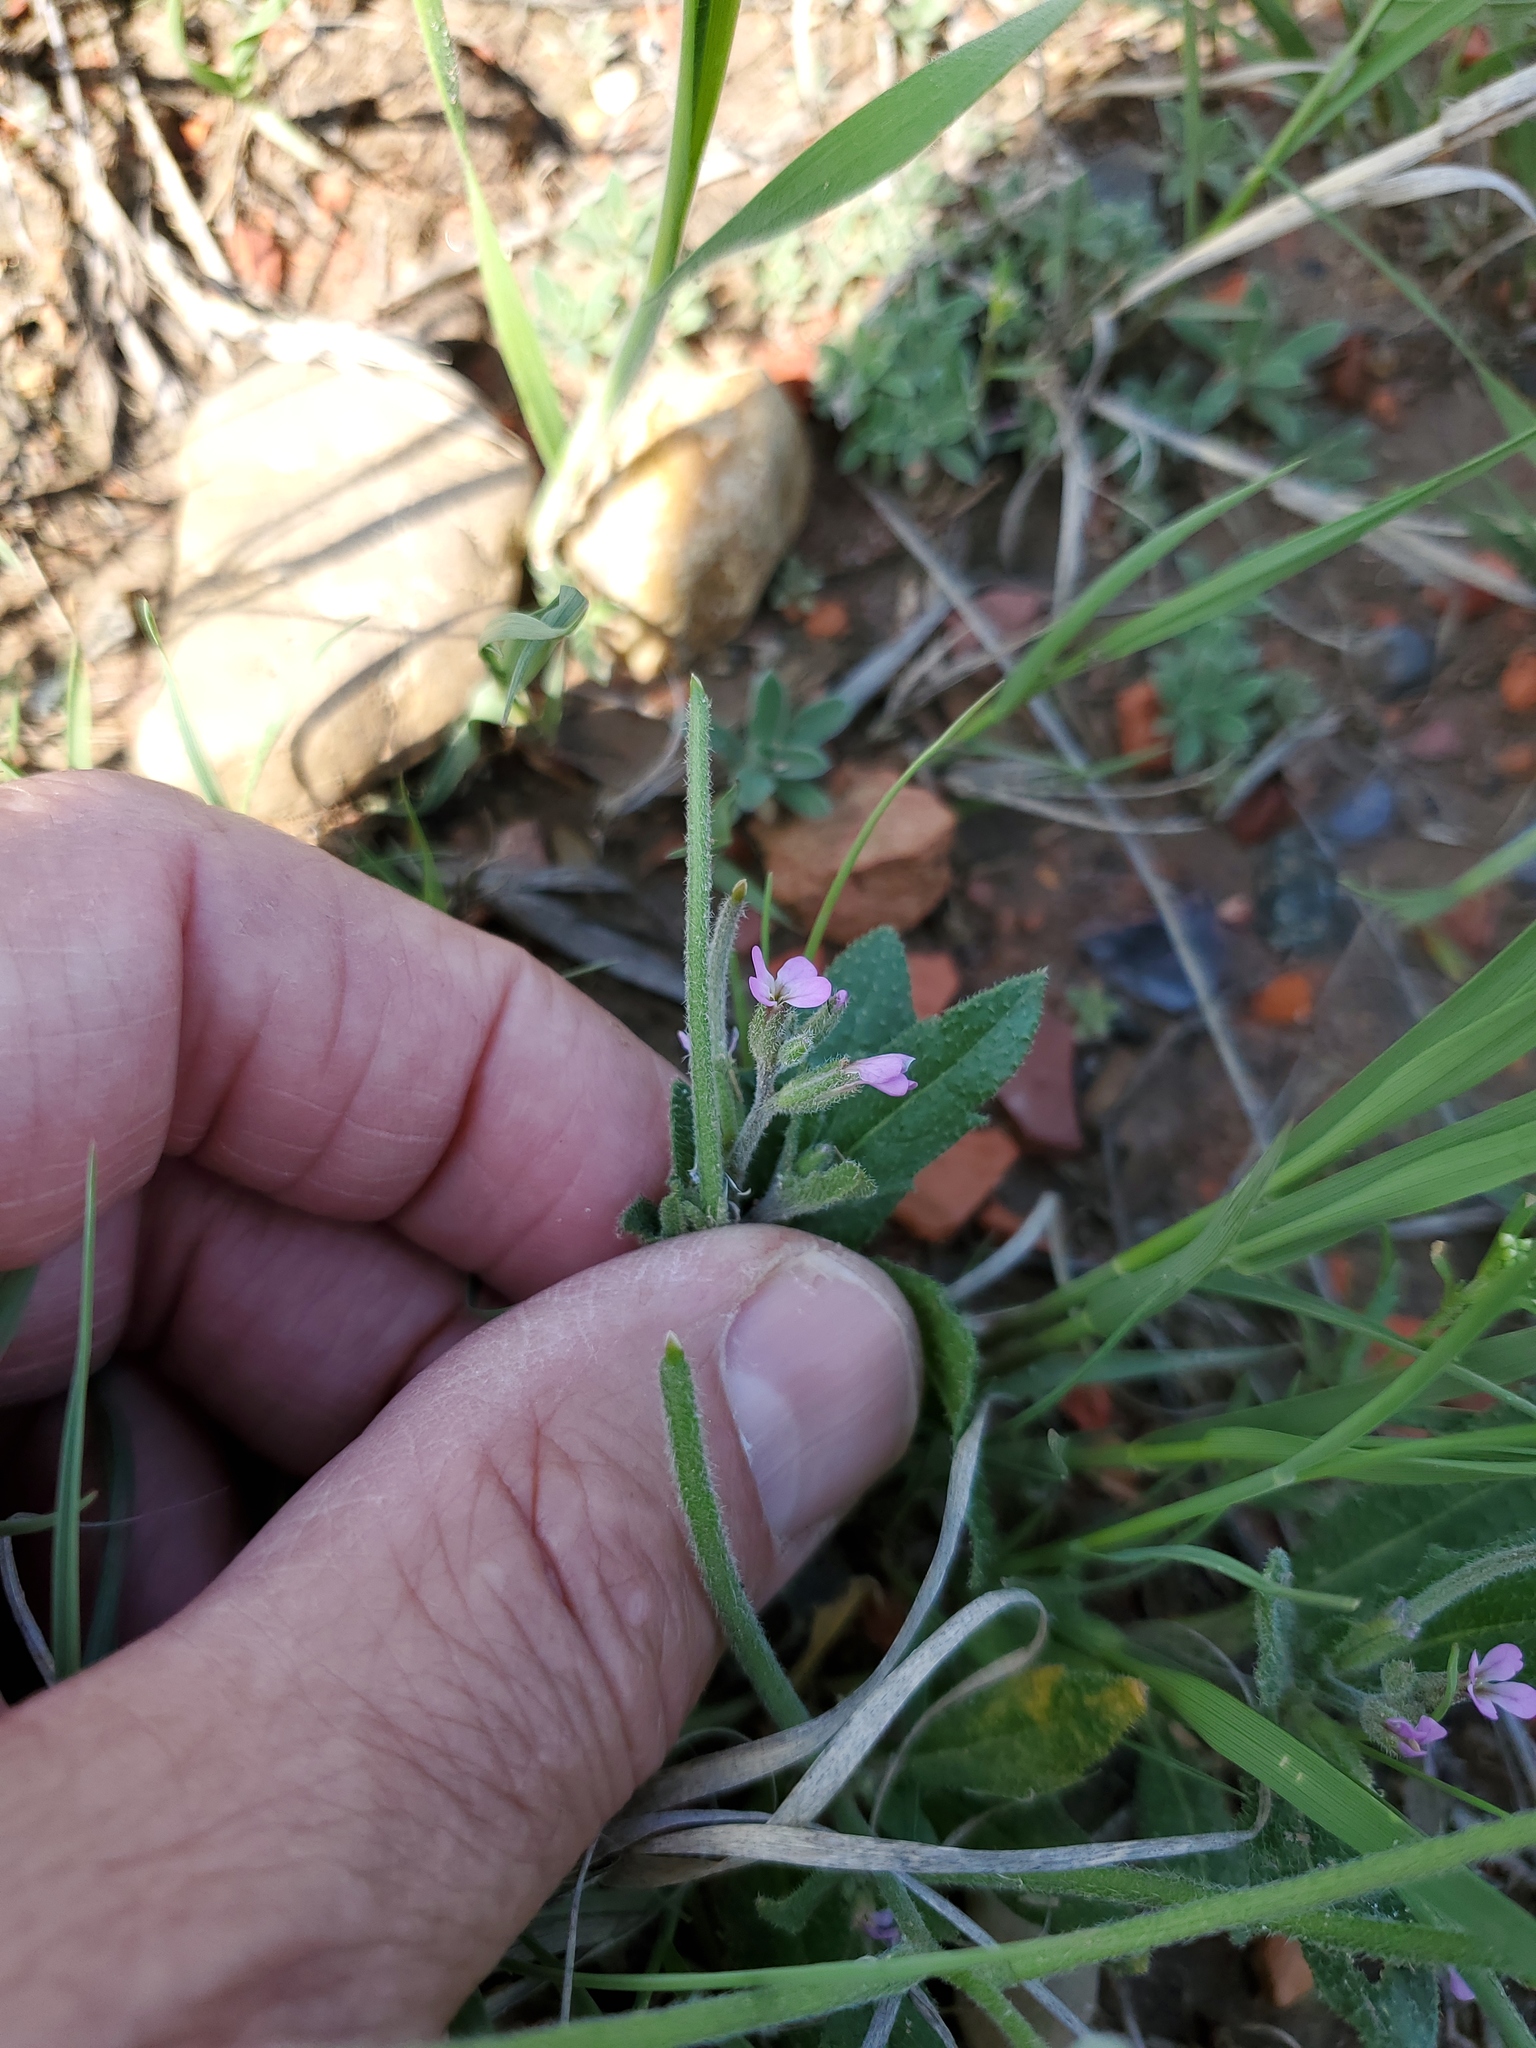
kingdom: Plantae
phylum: Tracheophyta
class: Magnoliopsida
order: Brassicales
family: Brassicaceae
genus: Strigosella
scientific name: Strigosella africana
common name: African mustard
